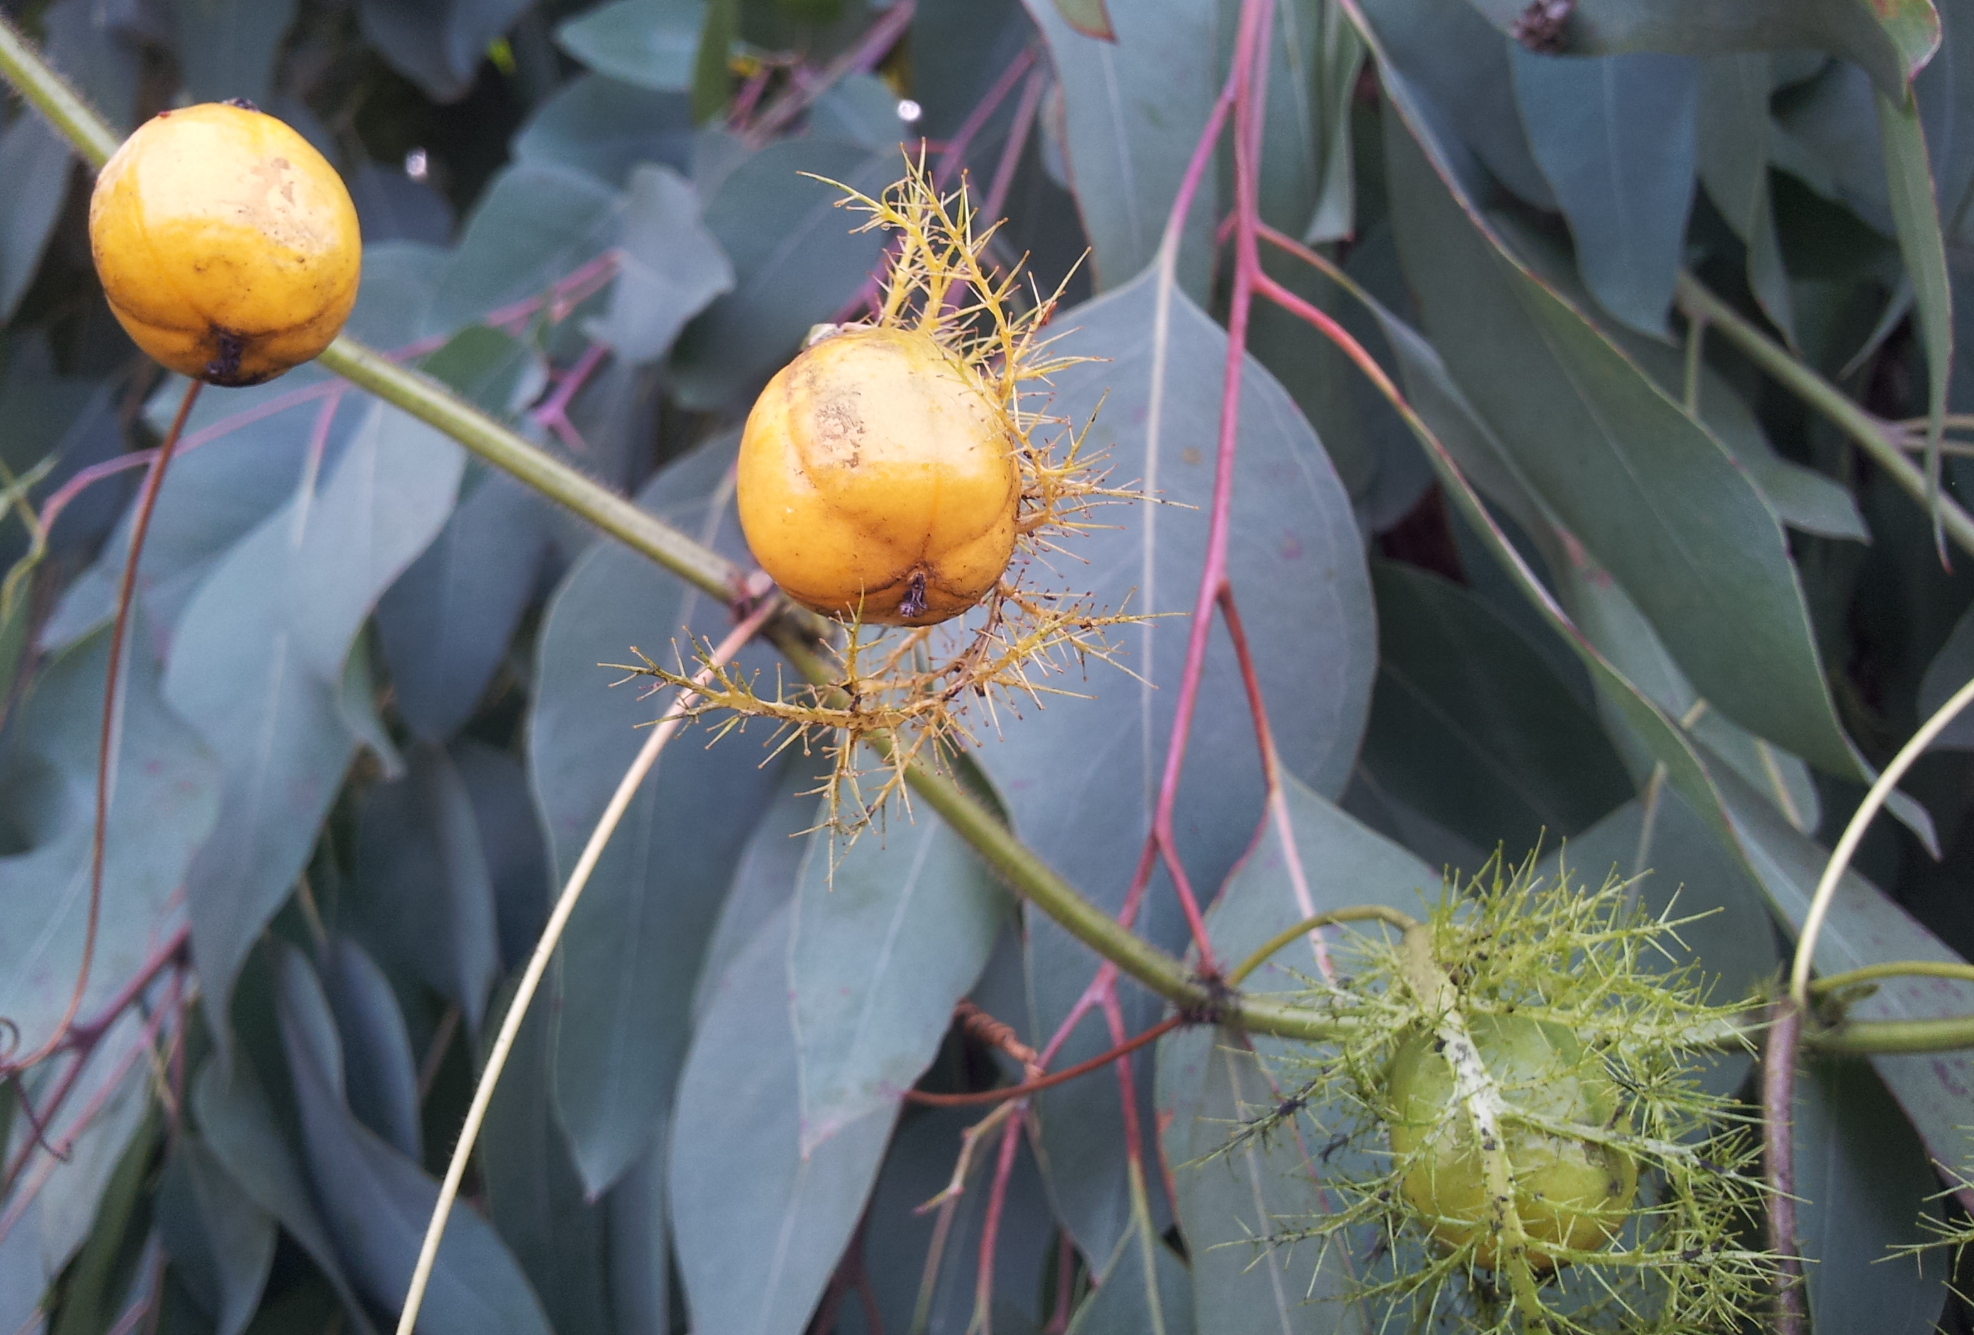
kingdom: Plantae
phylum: Tracheophyta
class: Magnoliopsida
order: Malpighiales
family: Passifloraceae
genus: Passiflora
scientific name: Passiflora foetida
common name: Fetid passionflower
